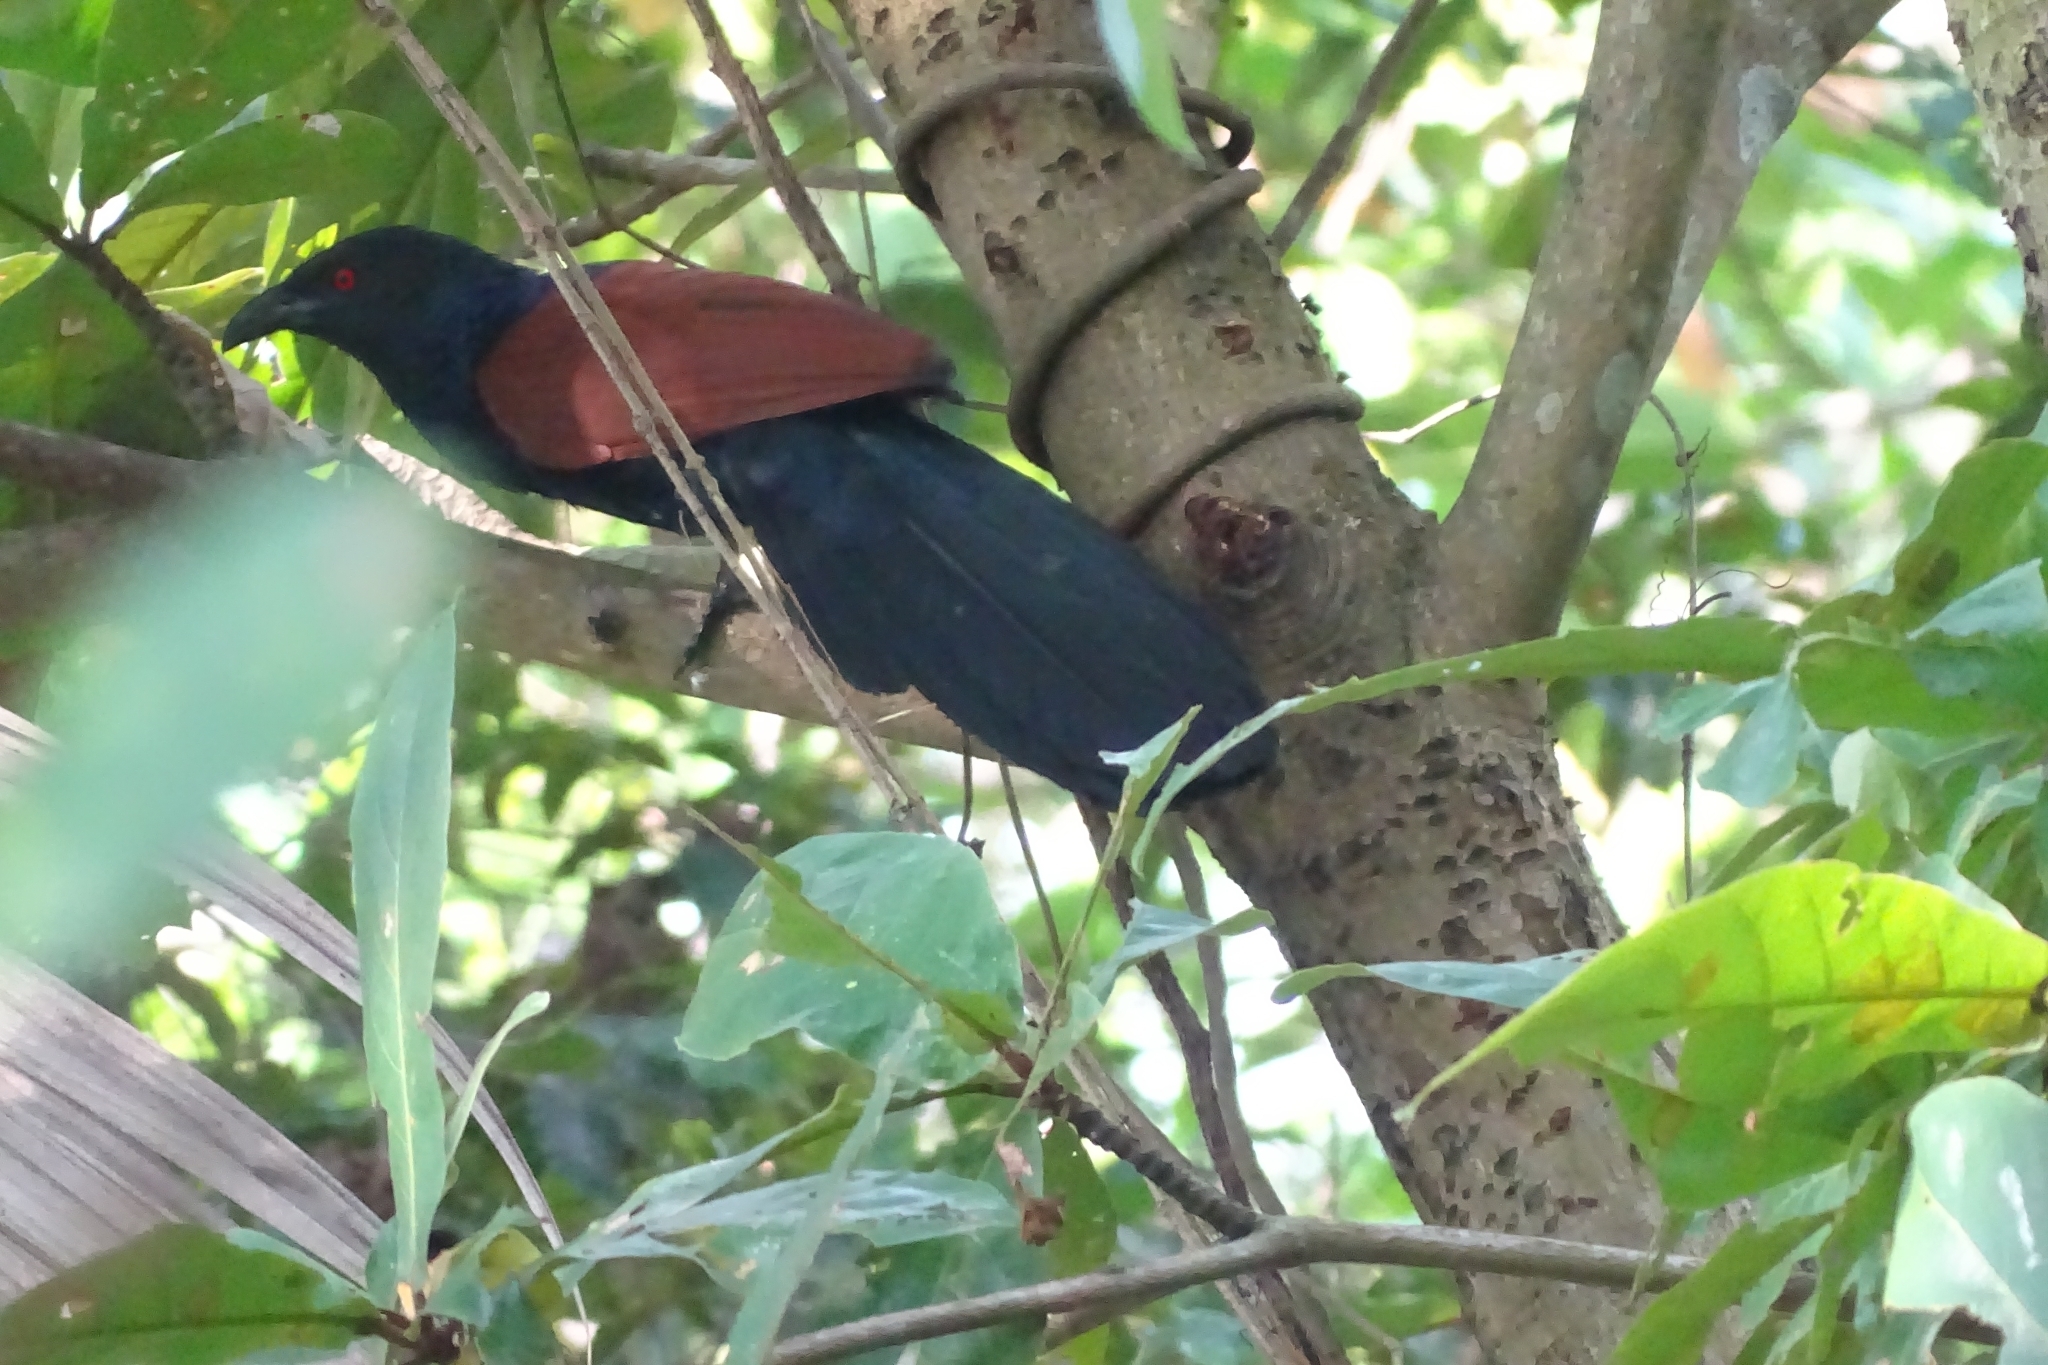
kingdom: Animalia
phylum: Chordata
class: Aves
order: Cuculiformes
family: Cuculidae
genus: Centropus
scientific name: Centropus sinensis
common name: Greater coucal
